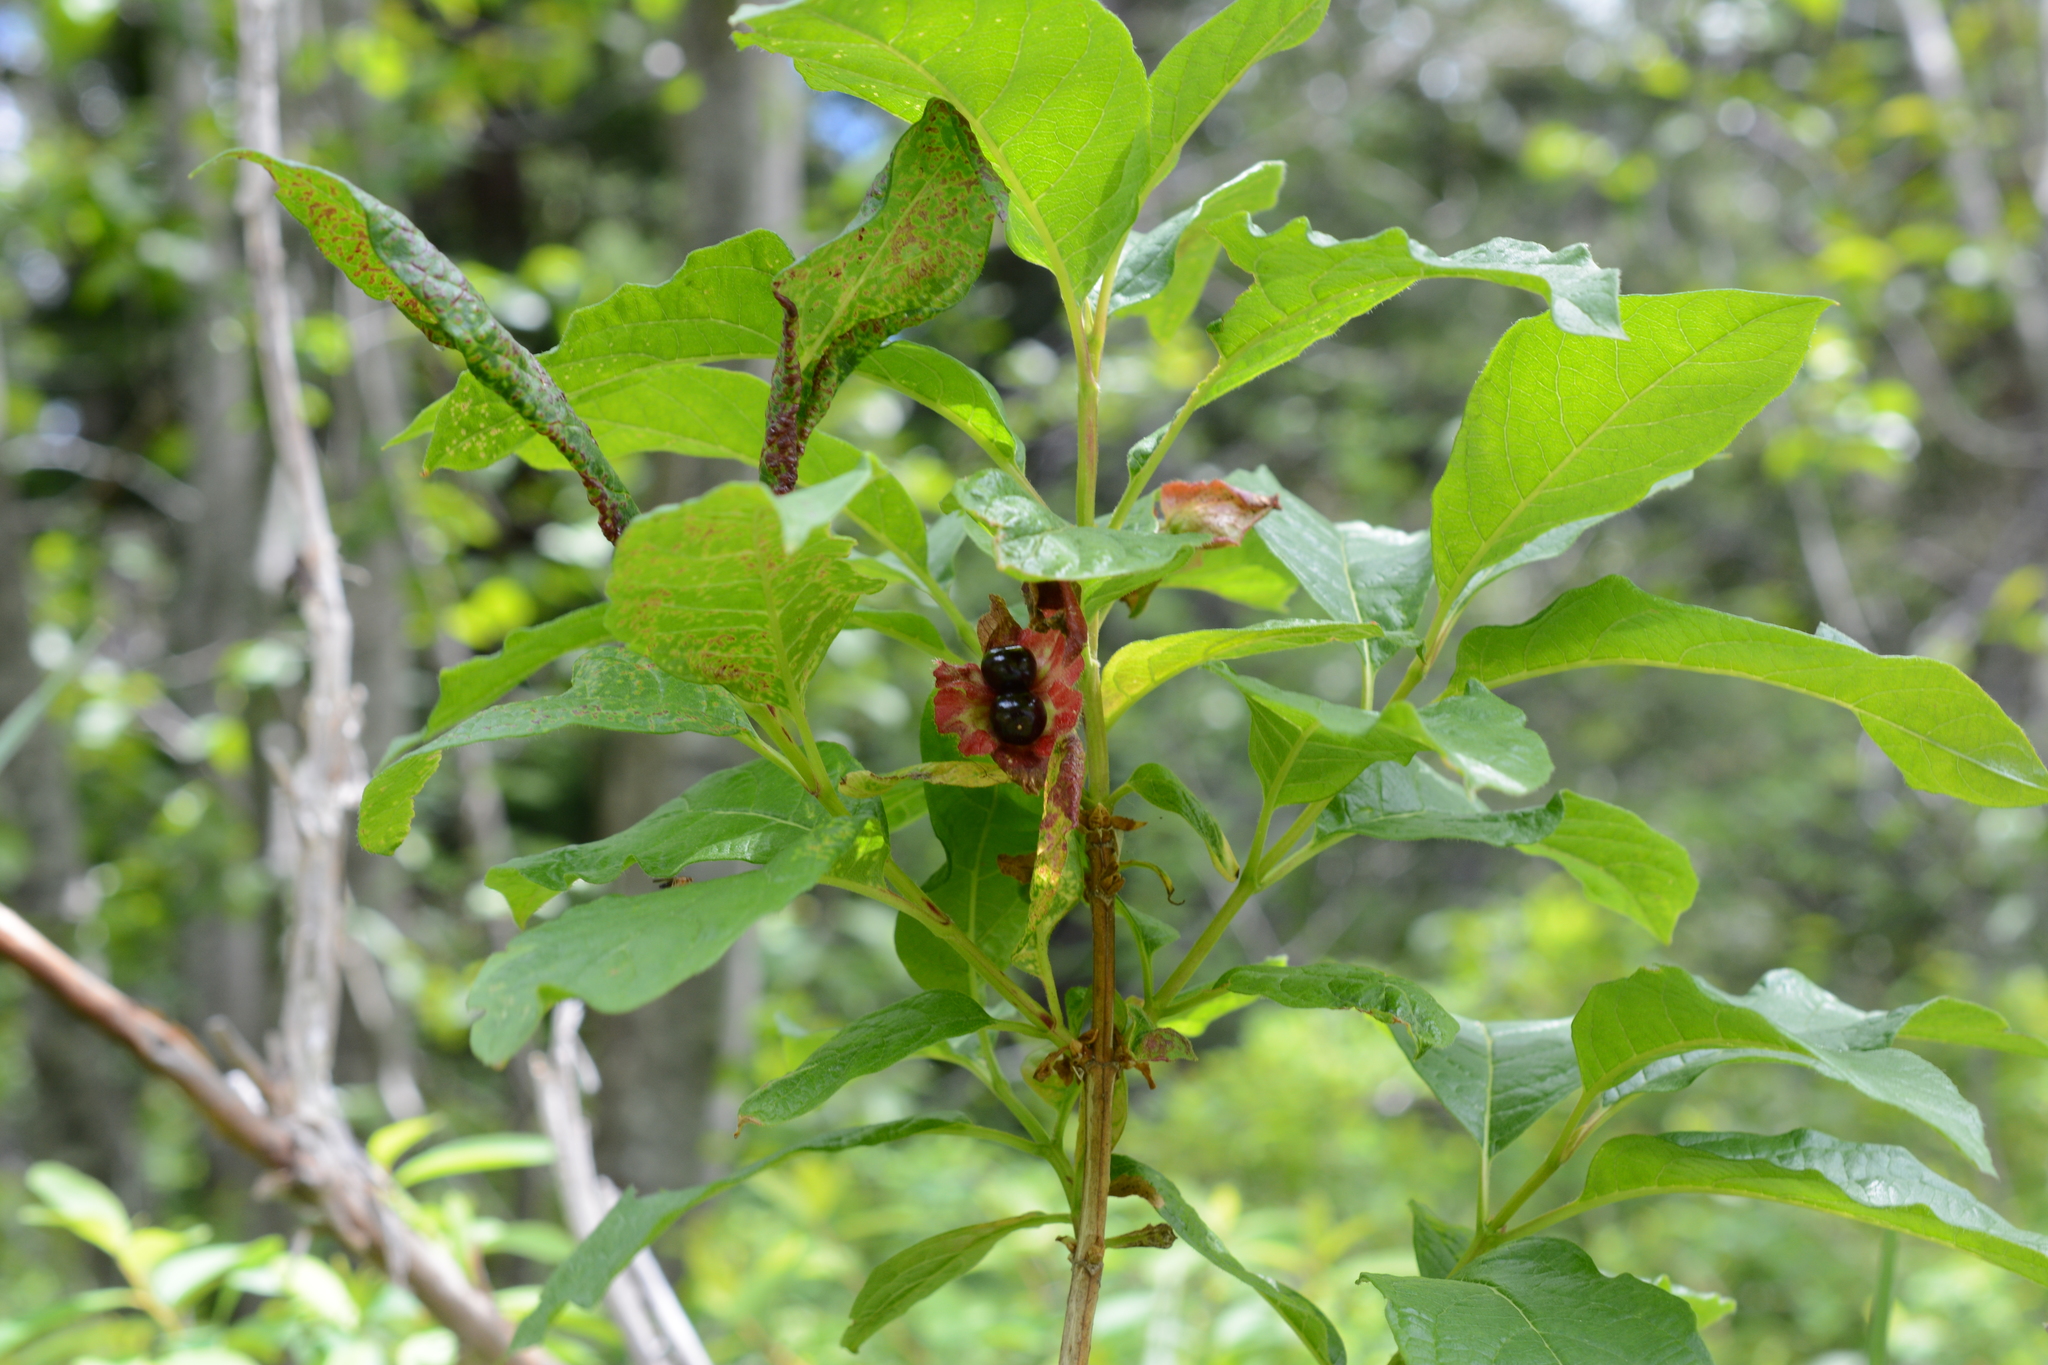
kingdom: Plantae
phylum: Tracheophyta
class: Magnoliopsida
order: Dipsacales
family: Caprifoliaceae
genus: Lonicera
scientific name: Lonicera involucrata
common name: Californian honeysuckle
